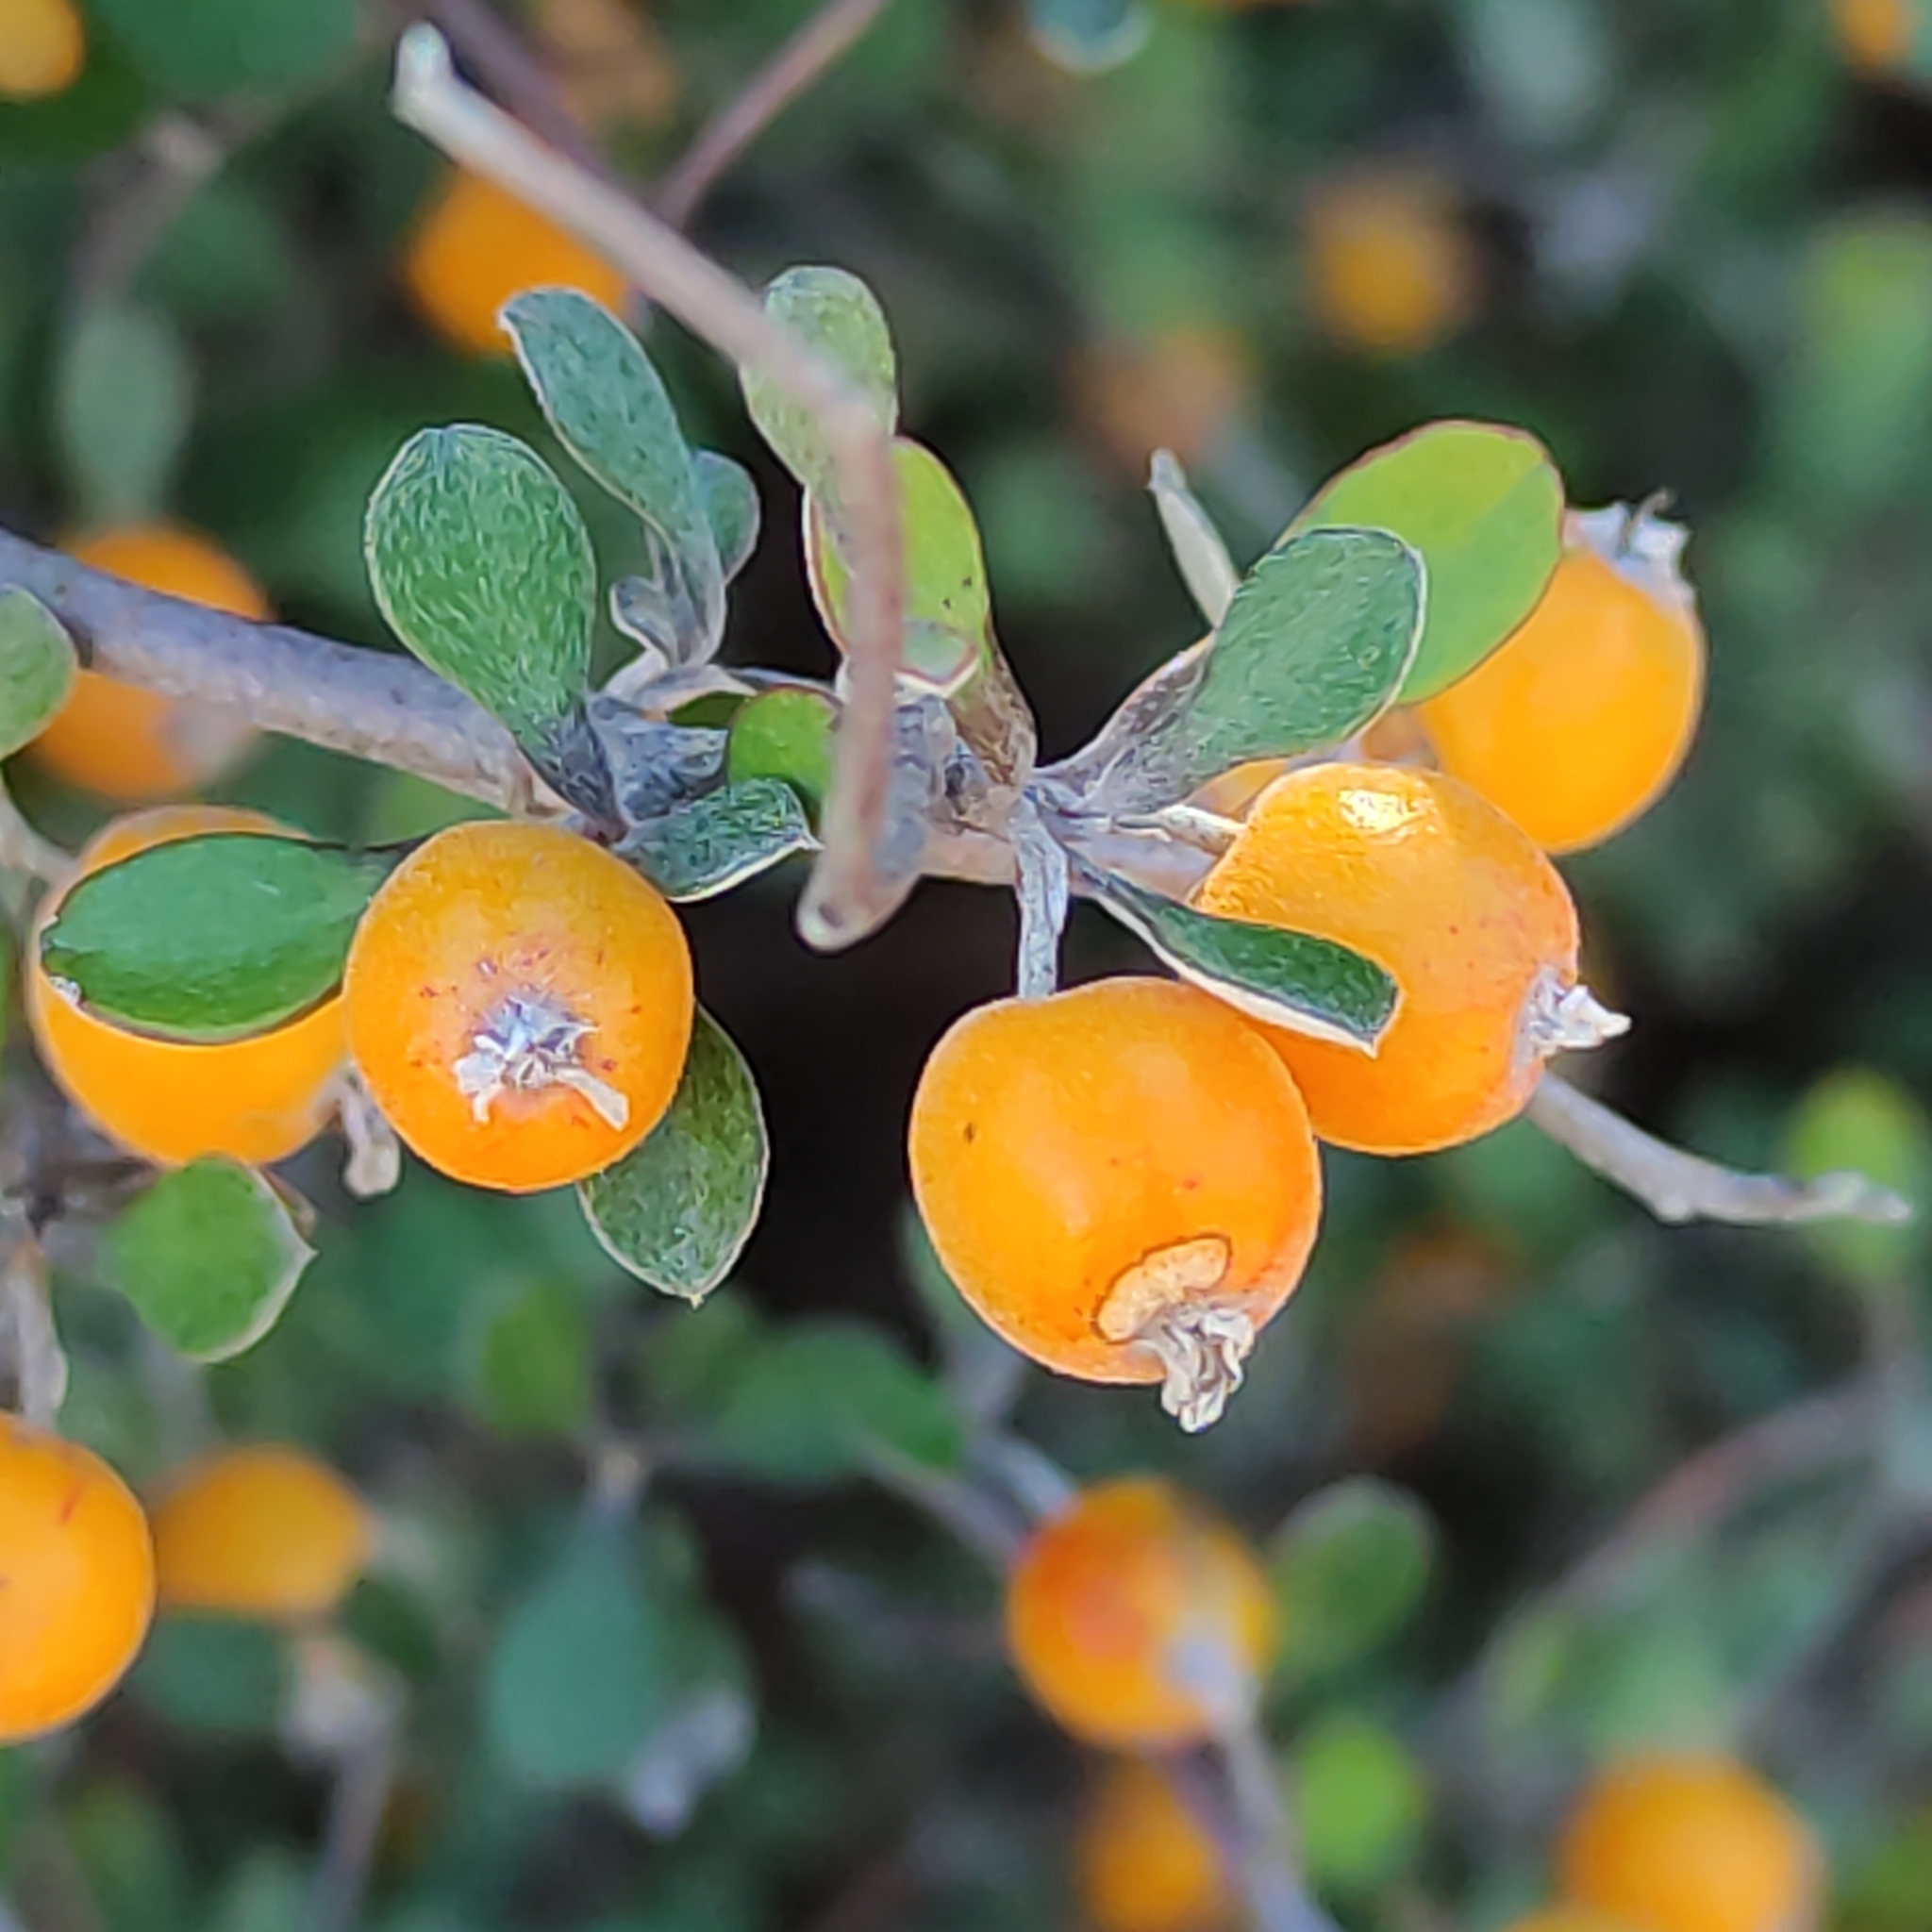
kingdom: Plantae
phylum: Tracheophyta
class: Magnoliopsida
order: Asterales
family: Argophyllaceae
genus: Corokia
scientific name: Corokia cotoneaster
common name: Wire nettingbush
